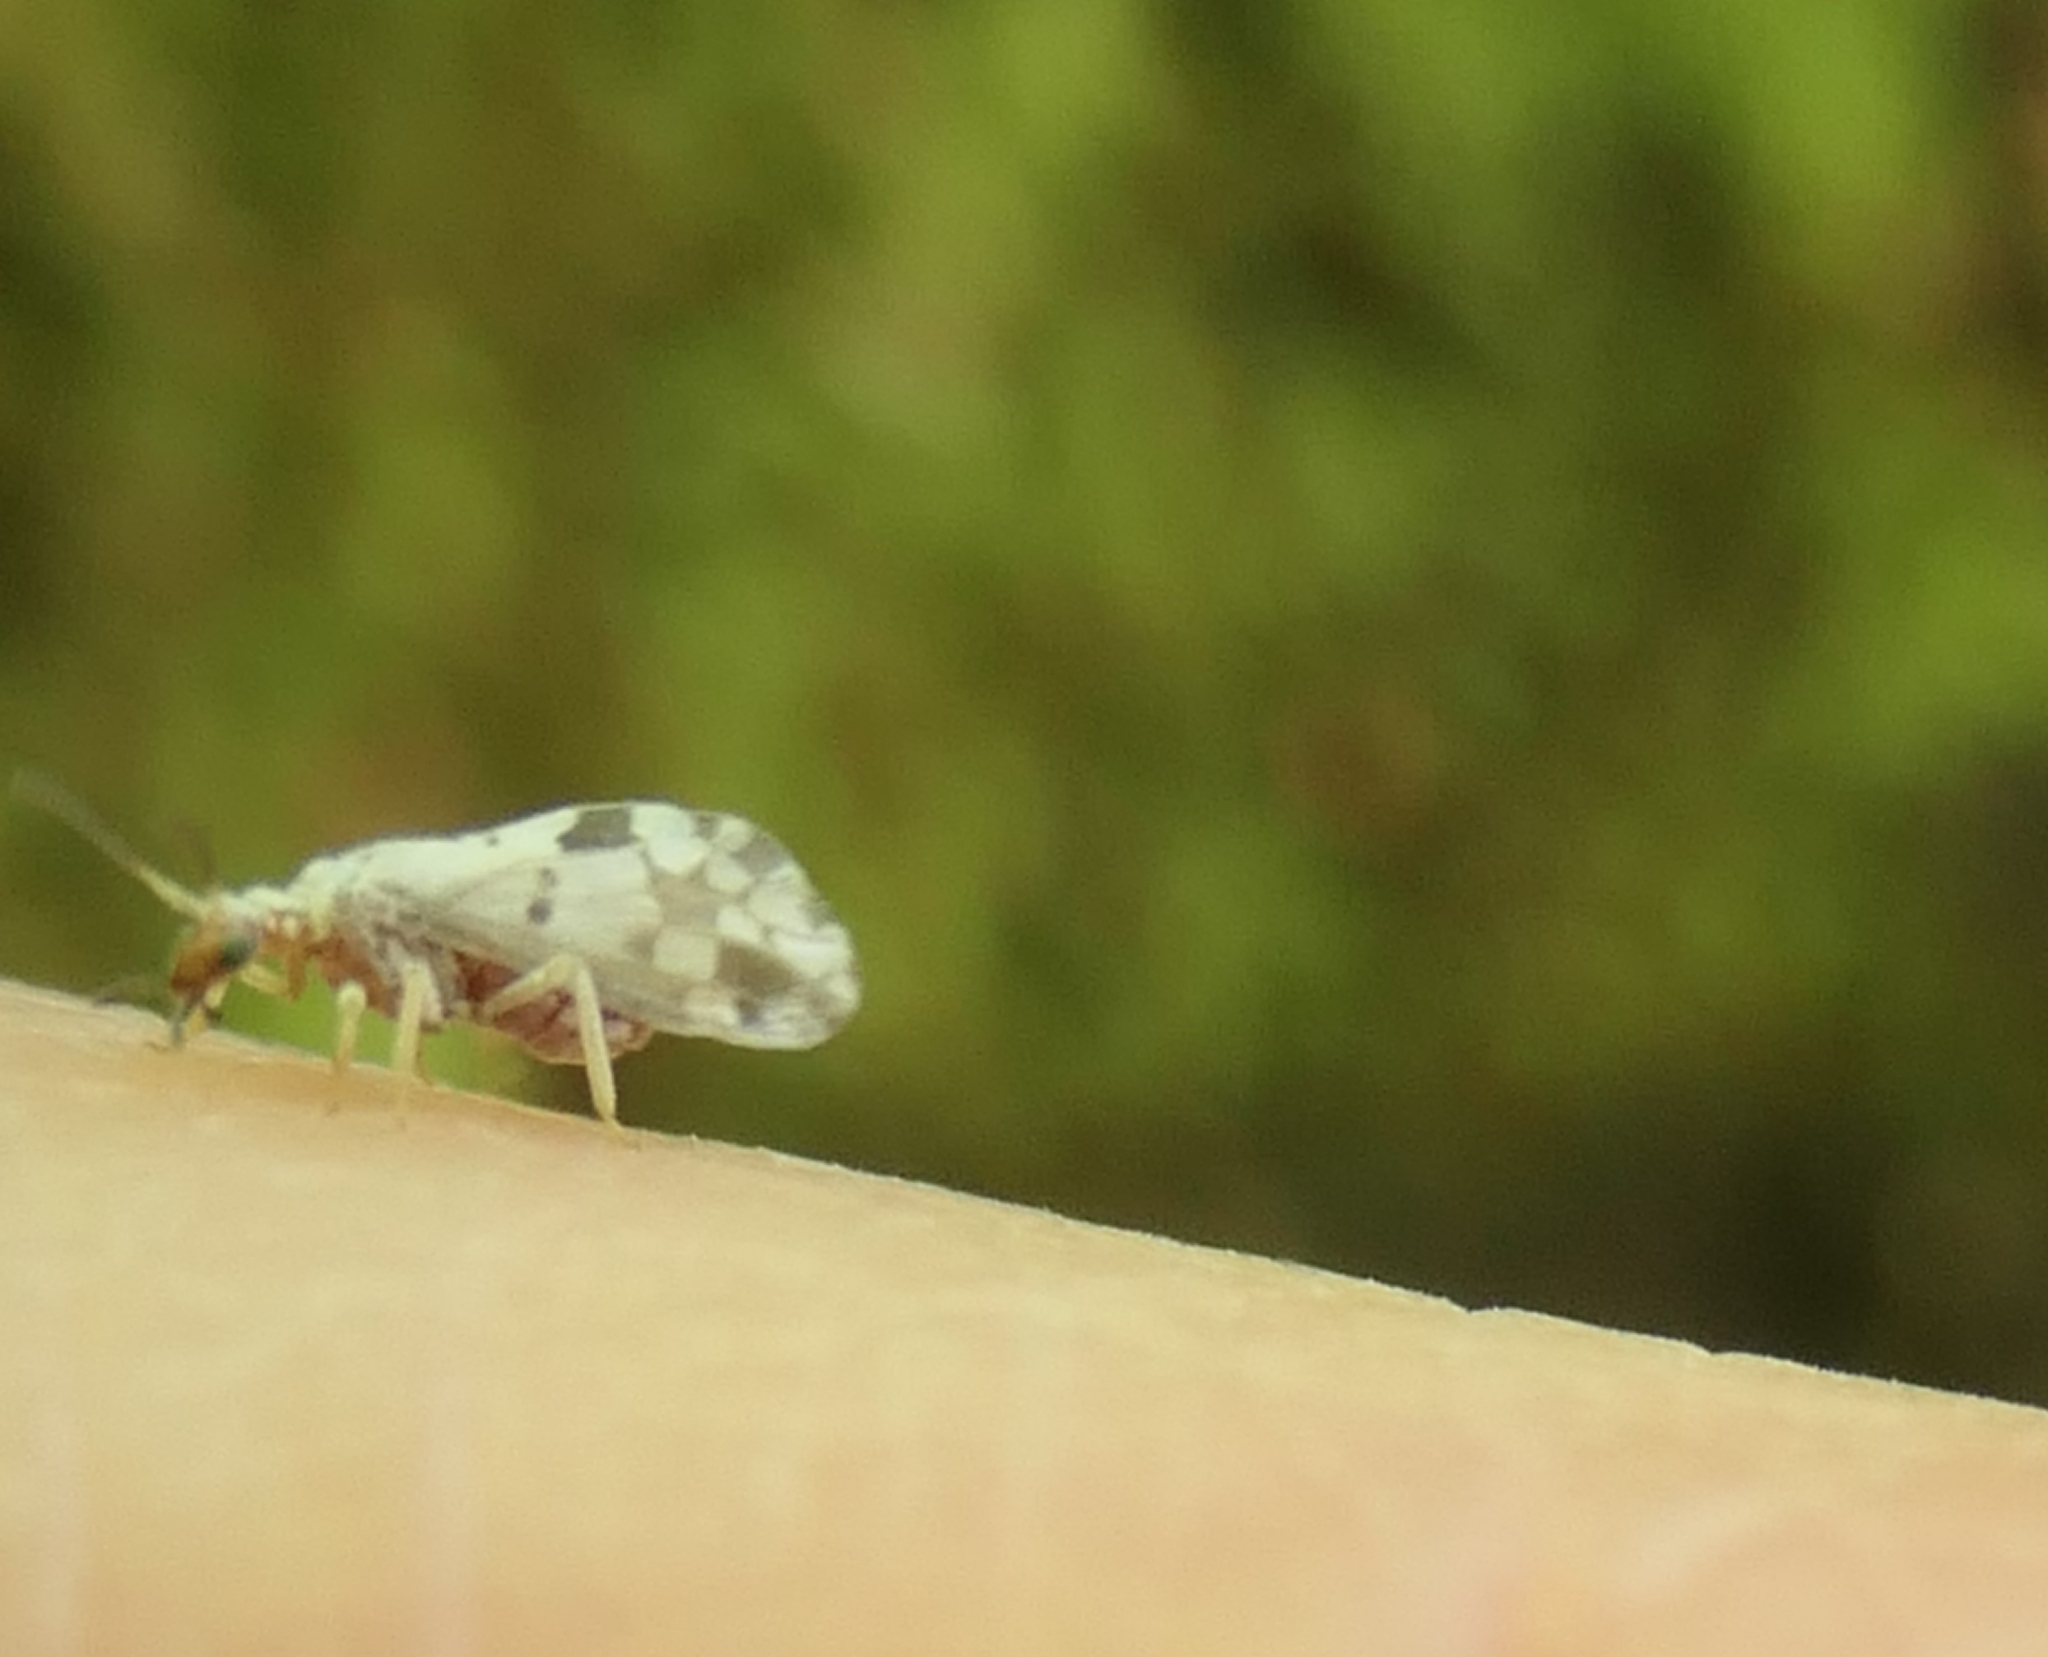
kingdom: Animalia
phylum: Arthropoda
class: Insecta
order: Neuroptera
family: Coniopterygidae
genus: Heteroconis
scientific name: Heteroconis ornata
